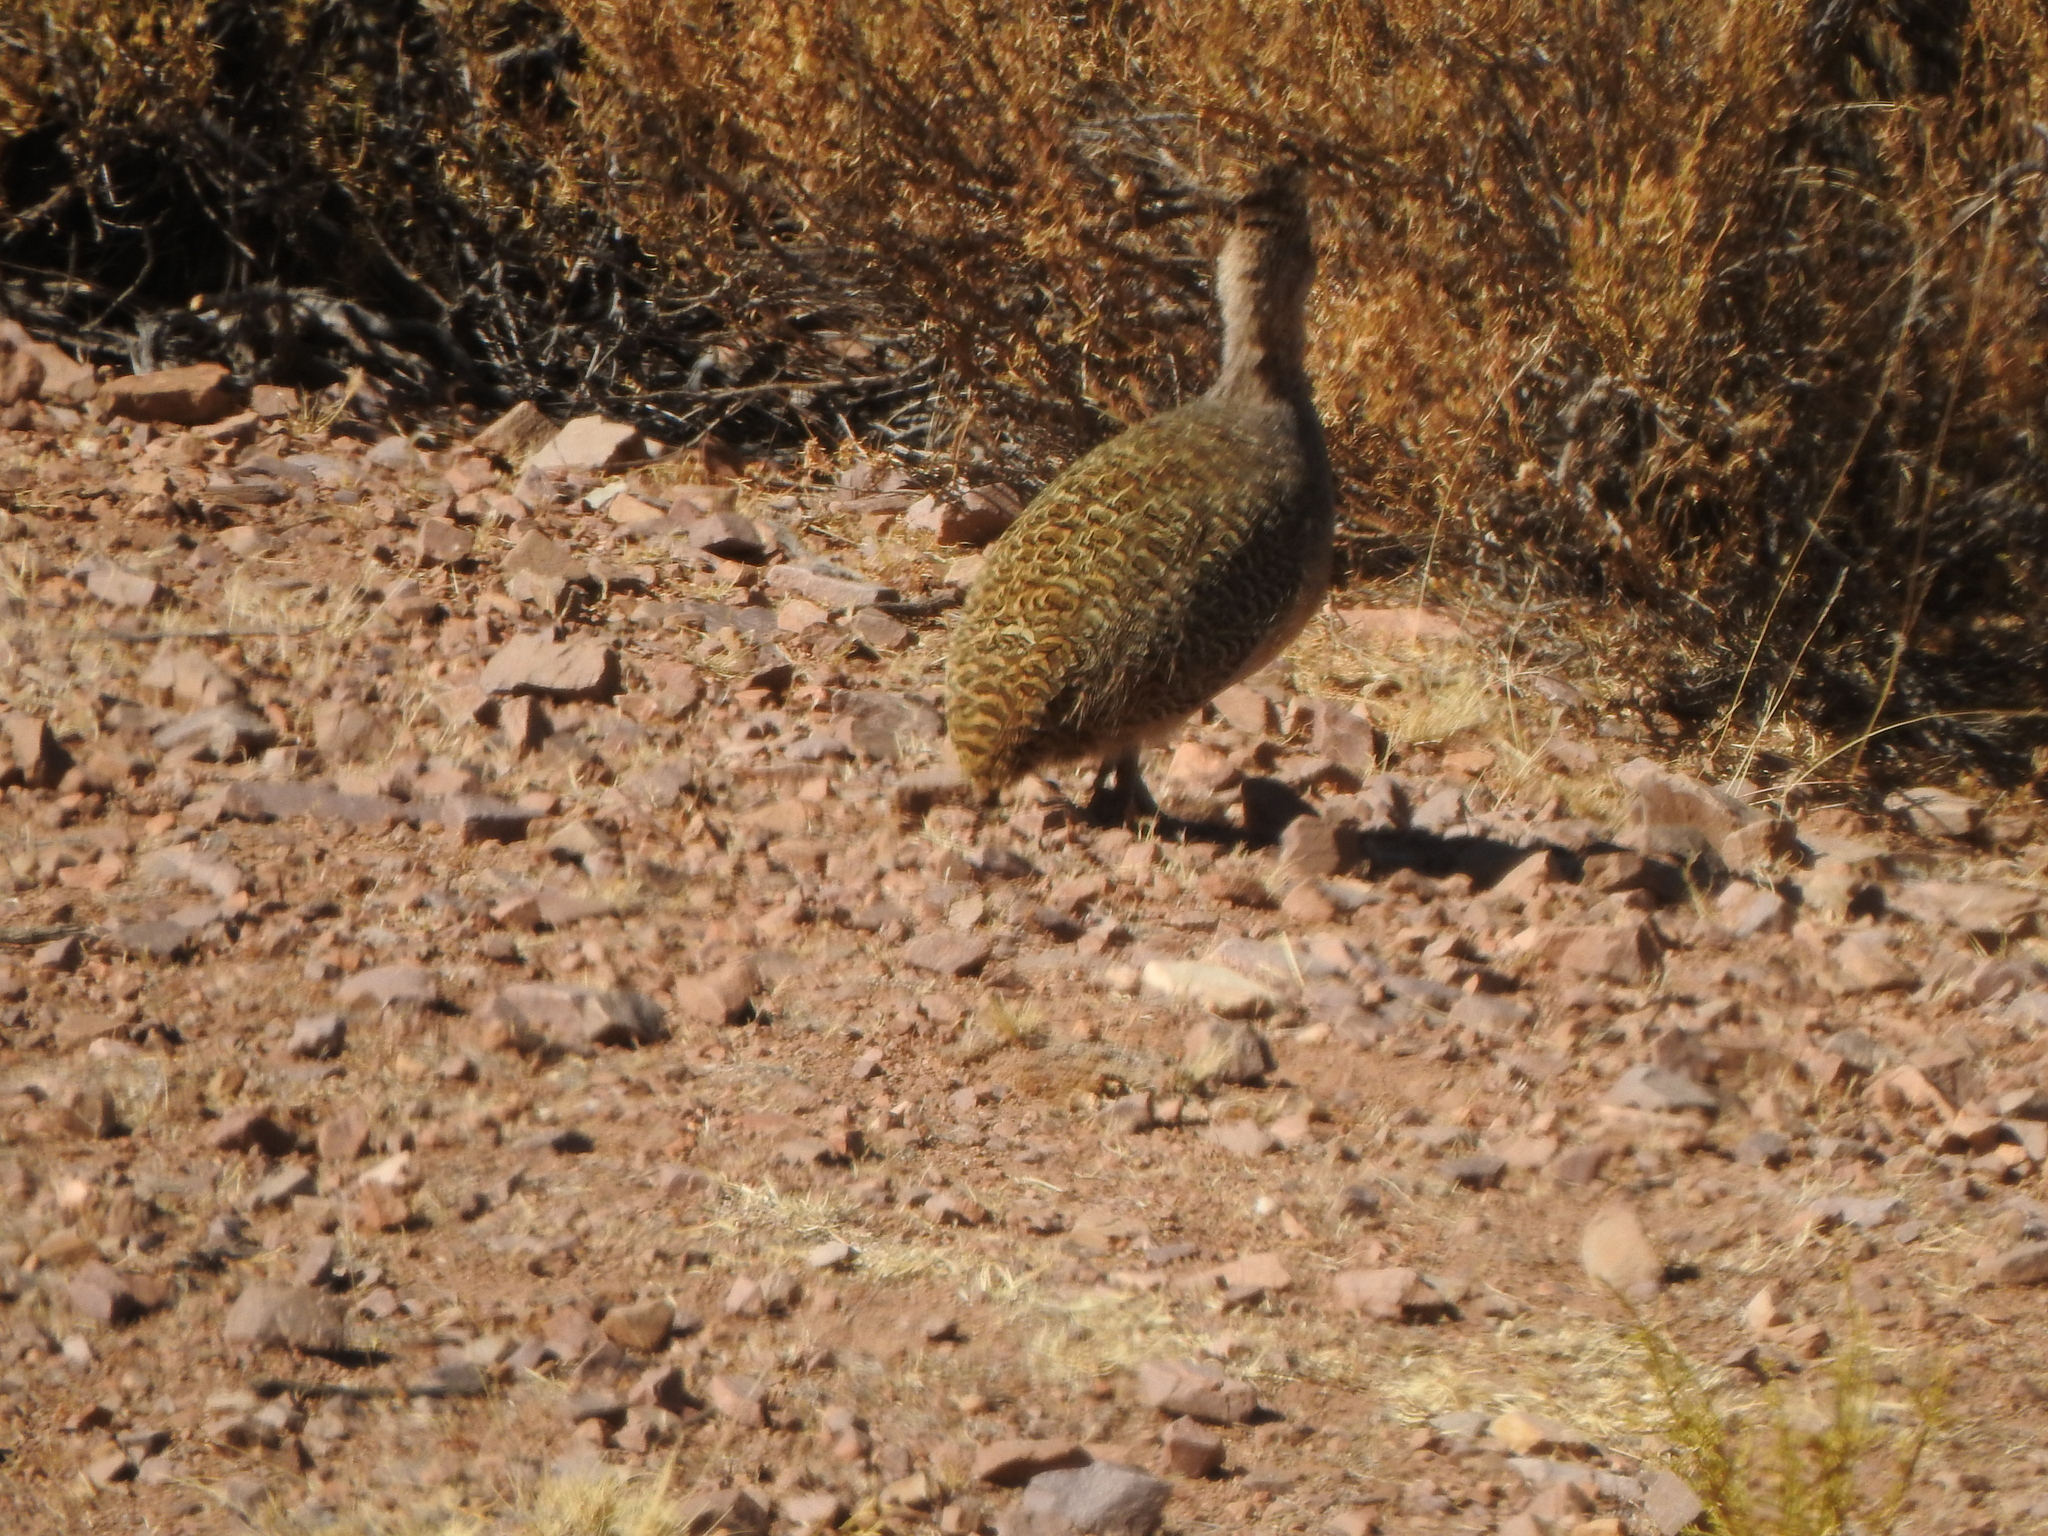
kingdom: Animalia
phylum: Chordata
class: Aves
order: Tinamiformes
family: Tinamidae
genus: Nothoprocta
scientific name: Nothoprocta ornata
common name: Ornate tinamou
